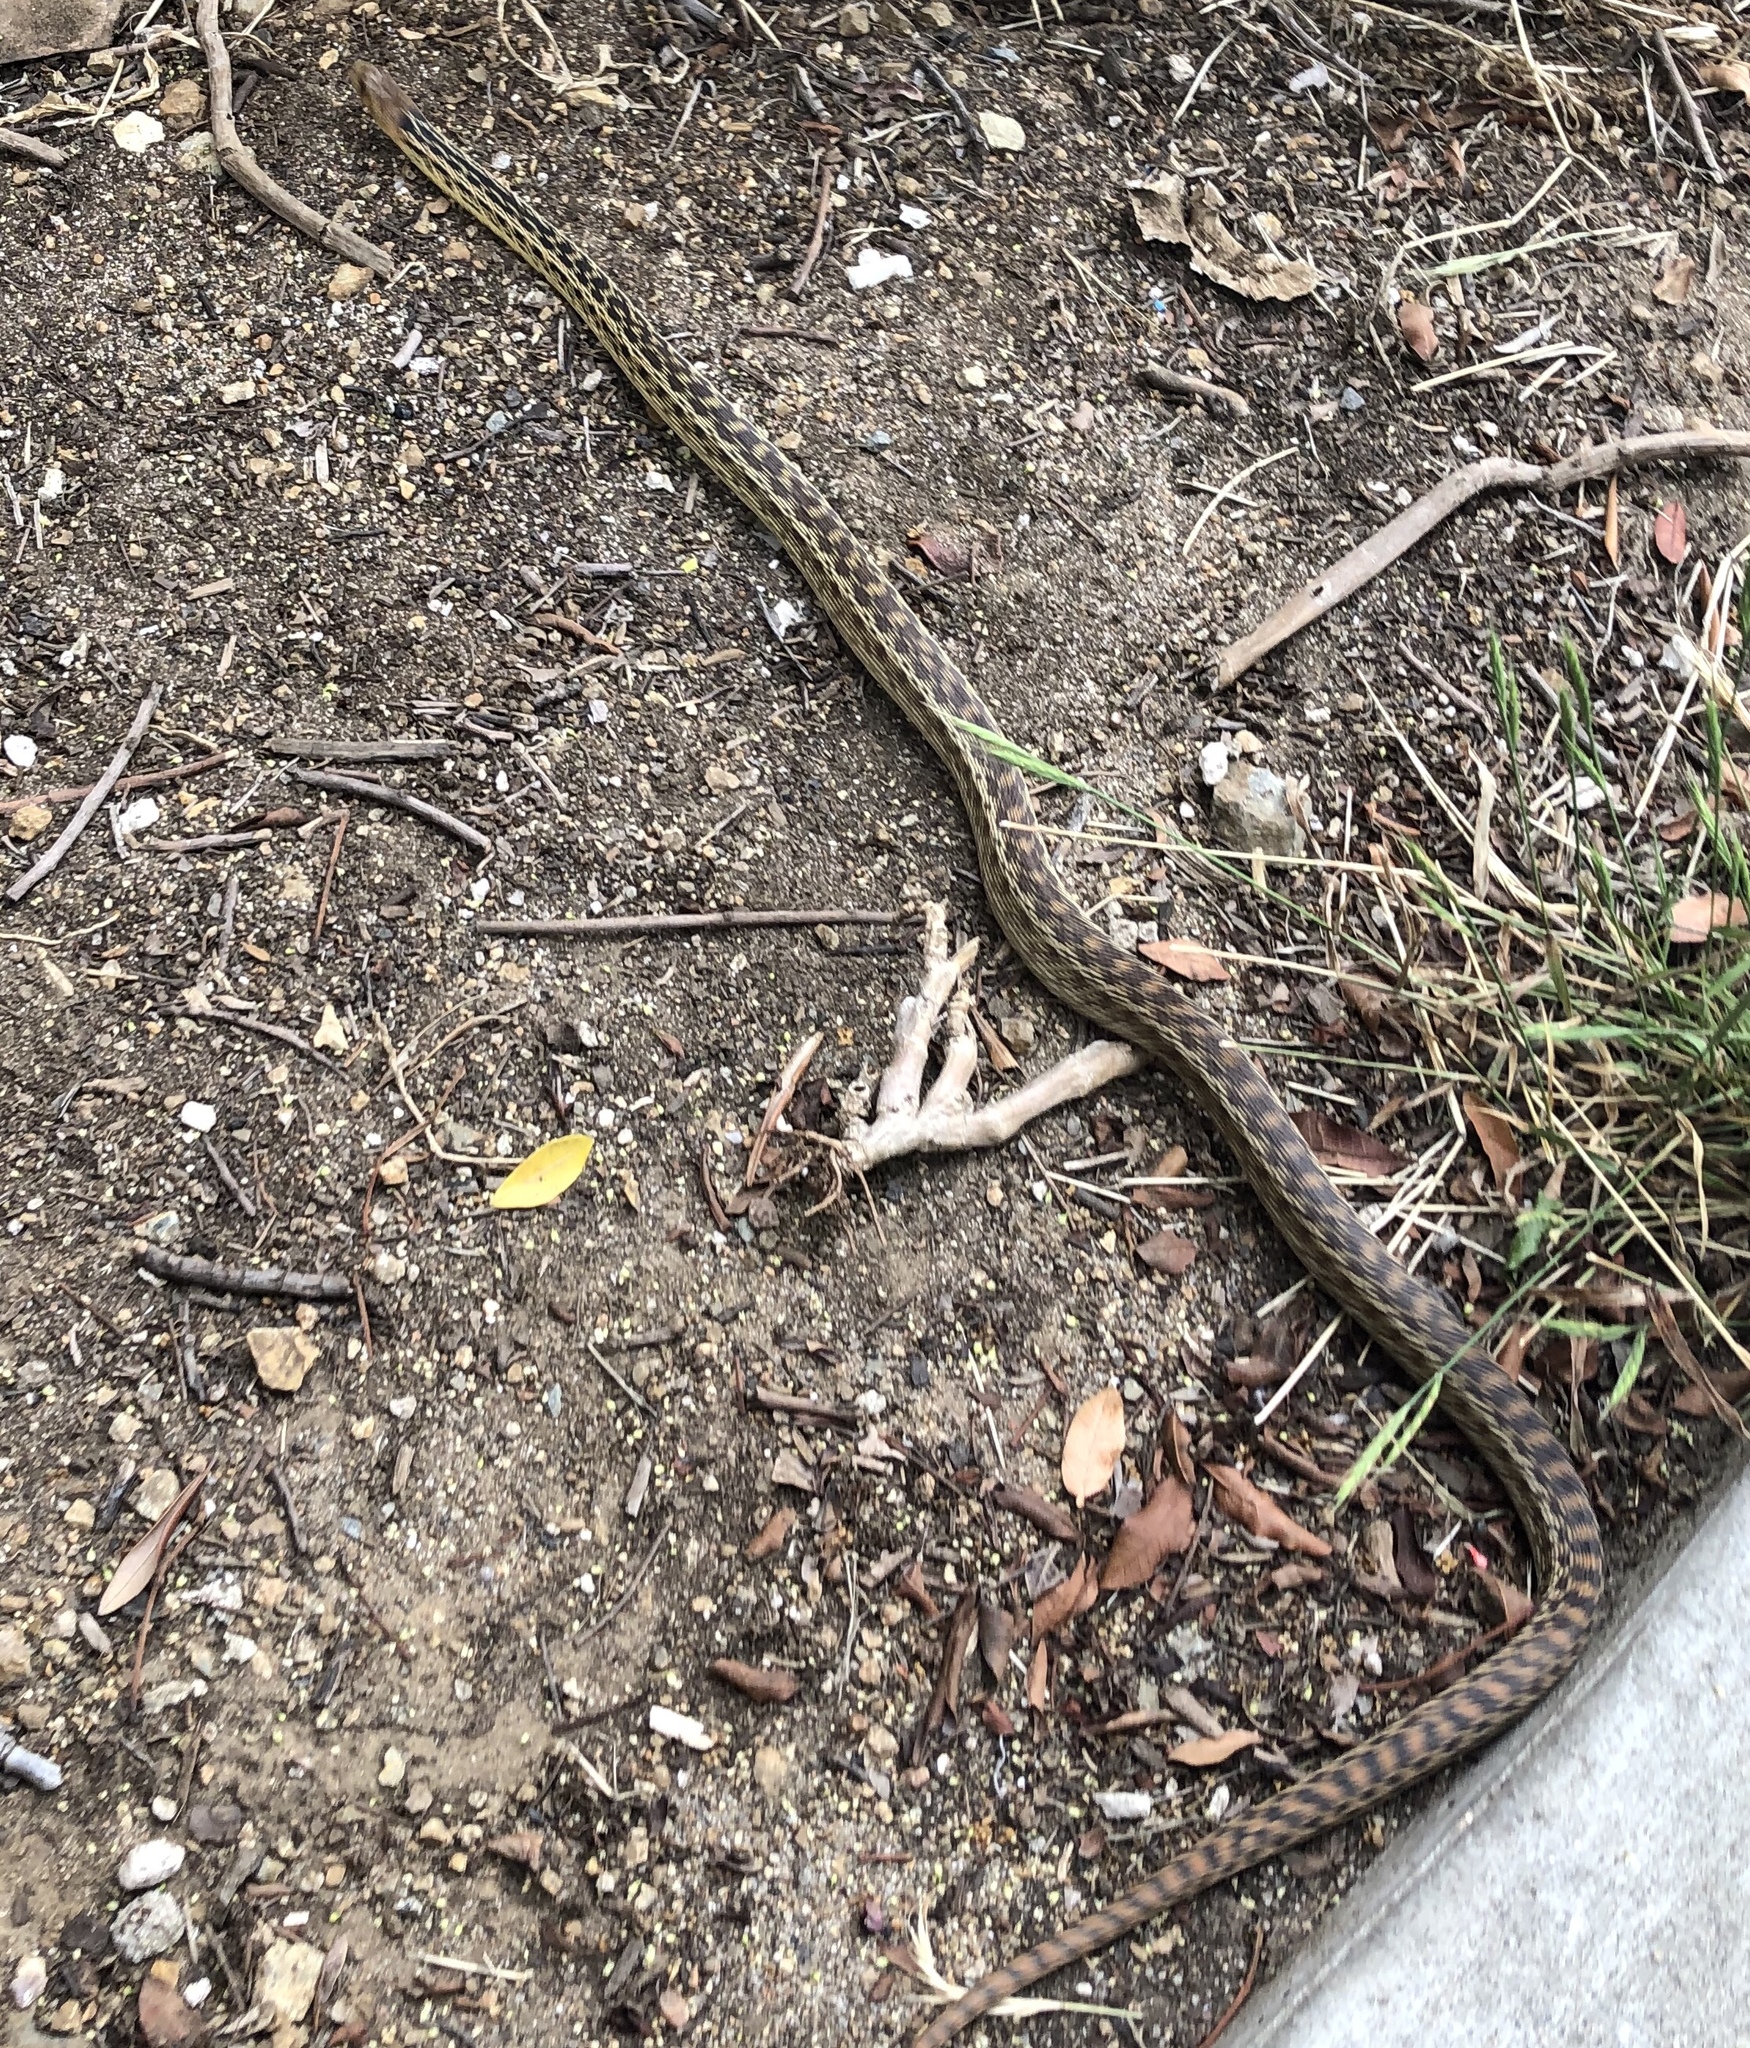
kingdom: Animalia
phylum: Chordata
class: Squamata
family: Colubridae
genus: Pituophis
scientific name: Pituophis catenifer
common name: Gopher snake
